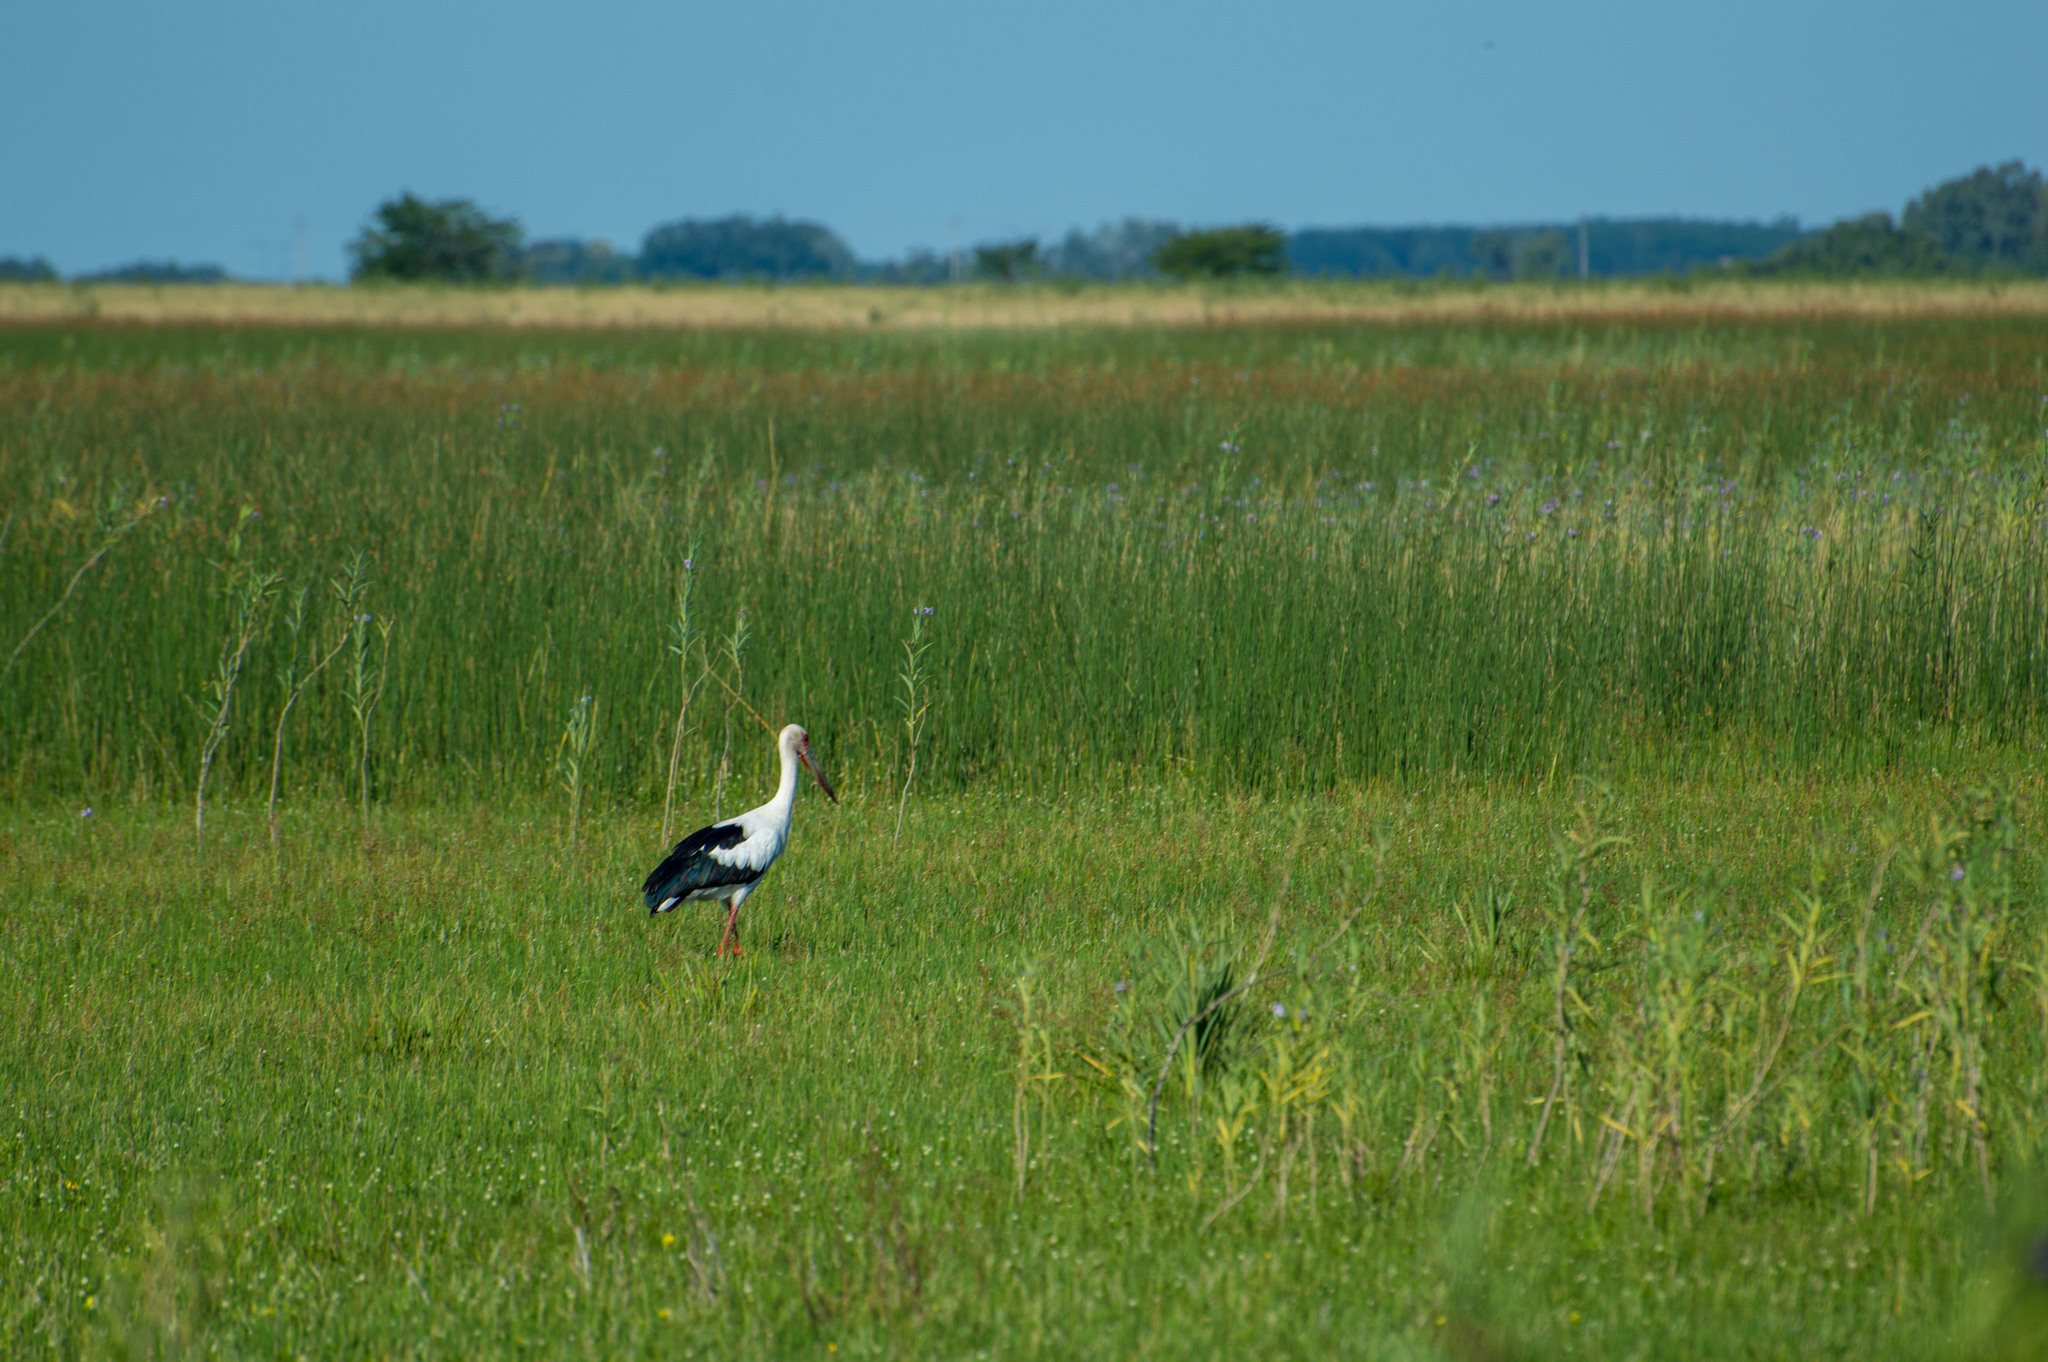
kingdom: Animalia
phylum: Chordata
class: Aves
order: Ciconiiformes
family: Ciconiidae
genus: Ciconia
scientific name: Ciconia maguari
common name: Maguari stork
